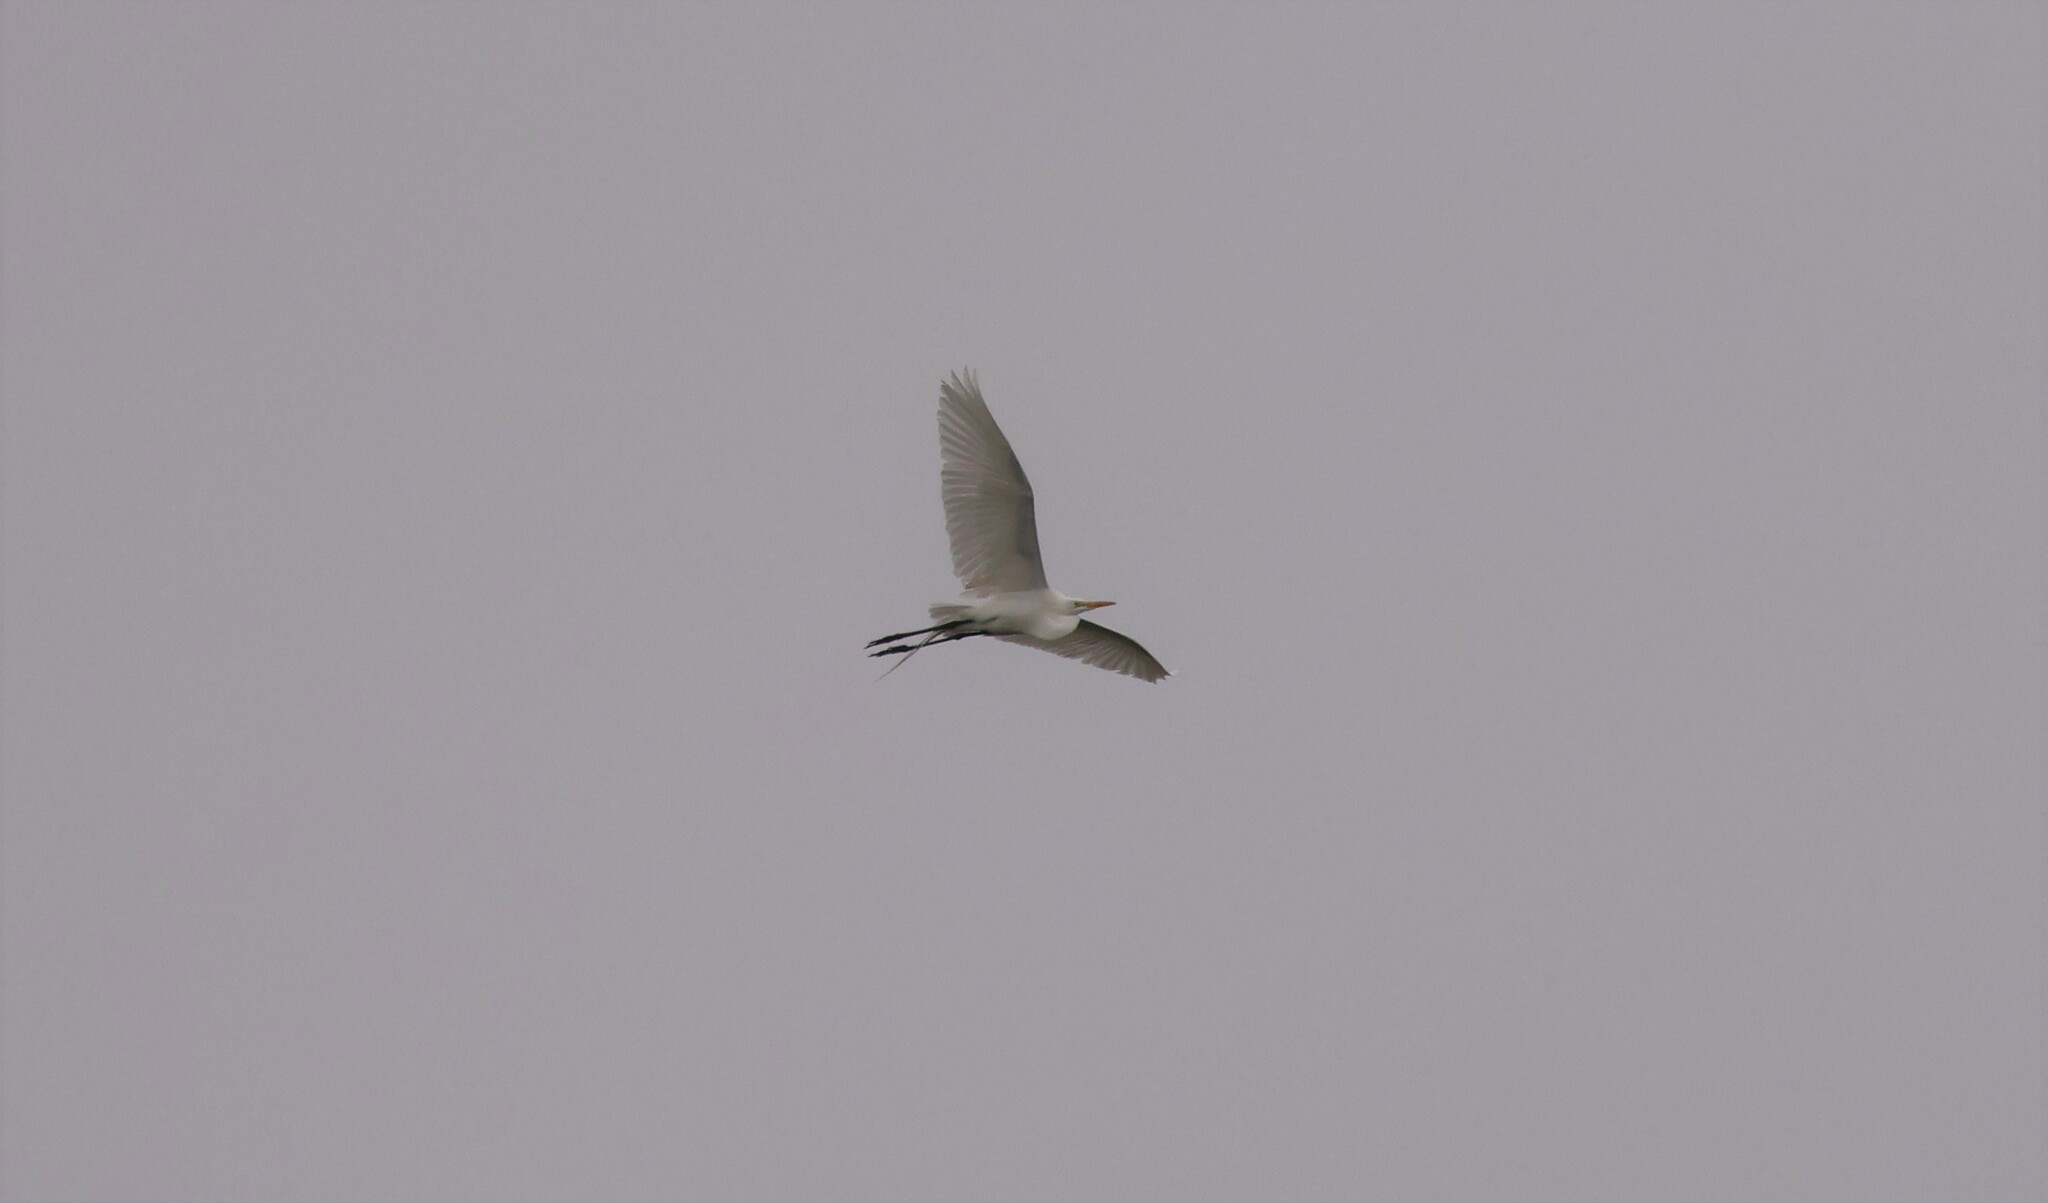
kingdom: Animalia
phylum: Chordata
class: Aves
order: Pelecaniformes
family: Ardeidae
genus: Ardea
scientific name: Ardea alba
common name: Great egret
